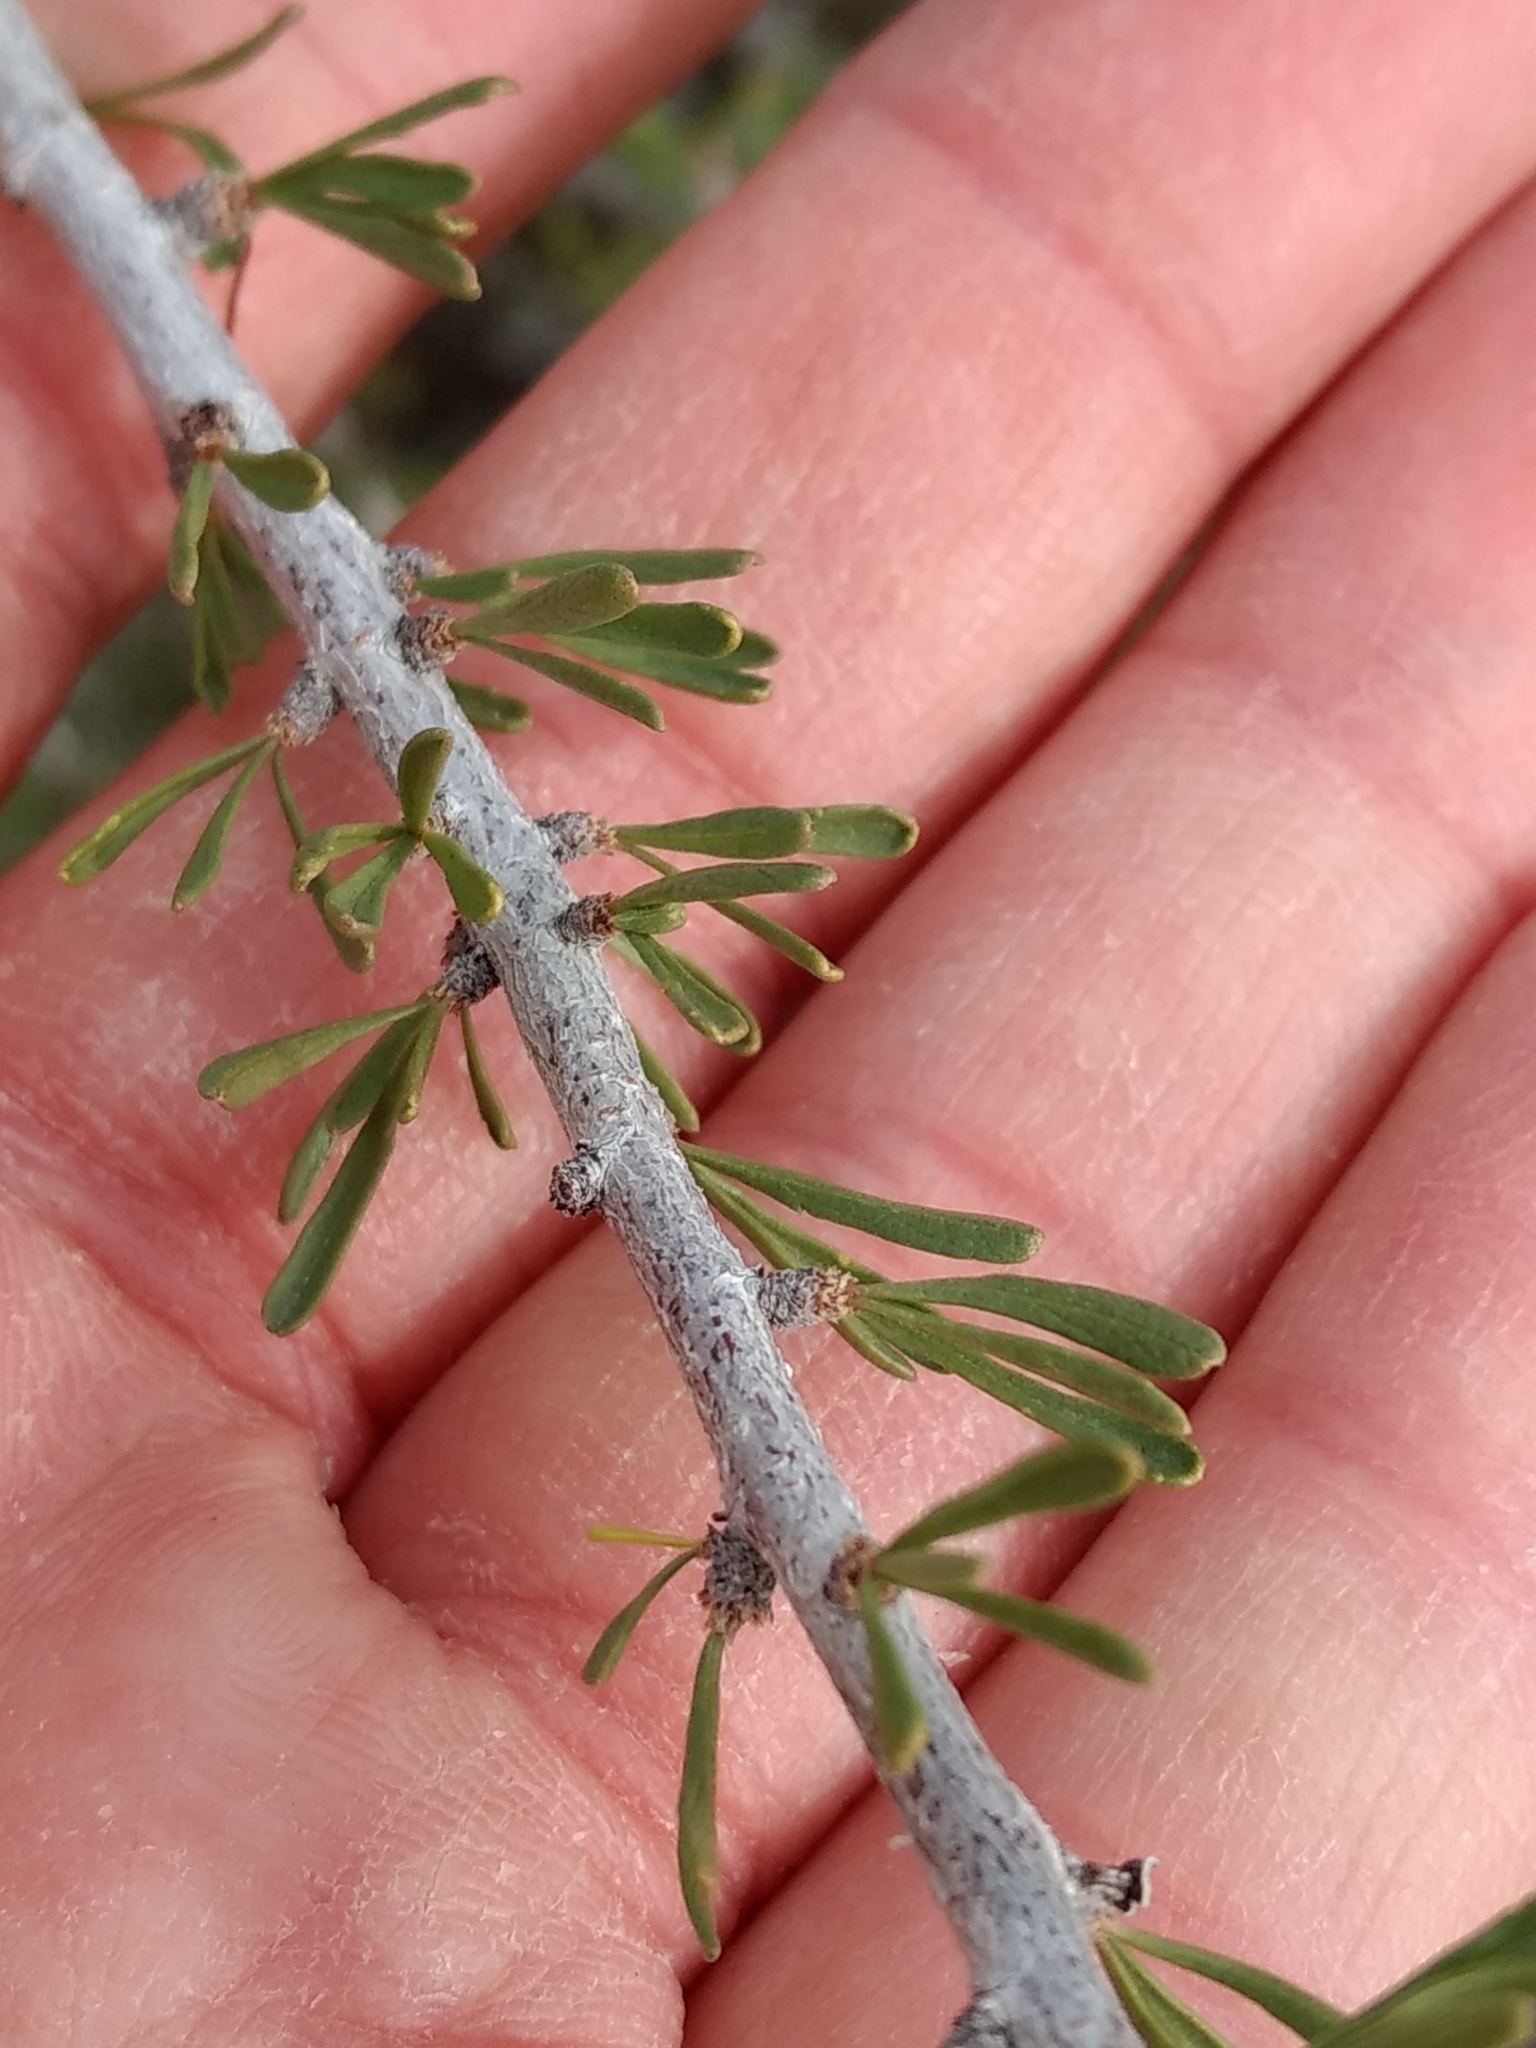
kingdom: Plantae
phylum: Tracheophyta
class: Magnoliopsida
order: Rosales
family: Rosaceae
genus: Prunus
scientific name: Prunus fasciculata
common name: Desert almond
